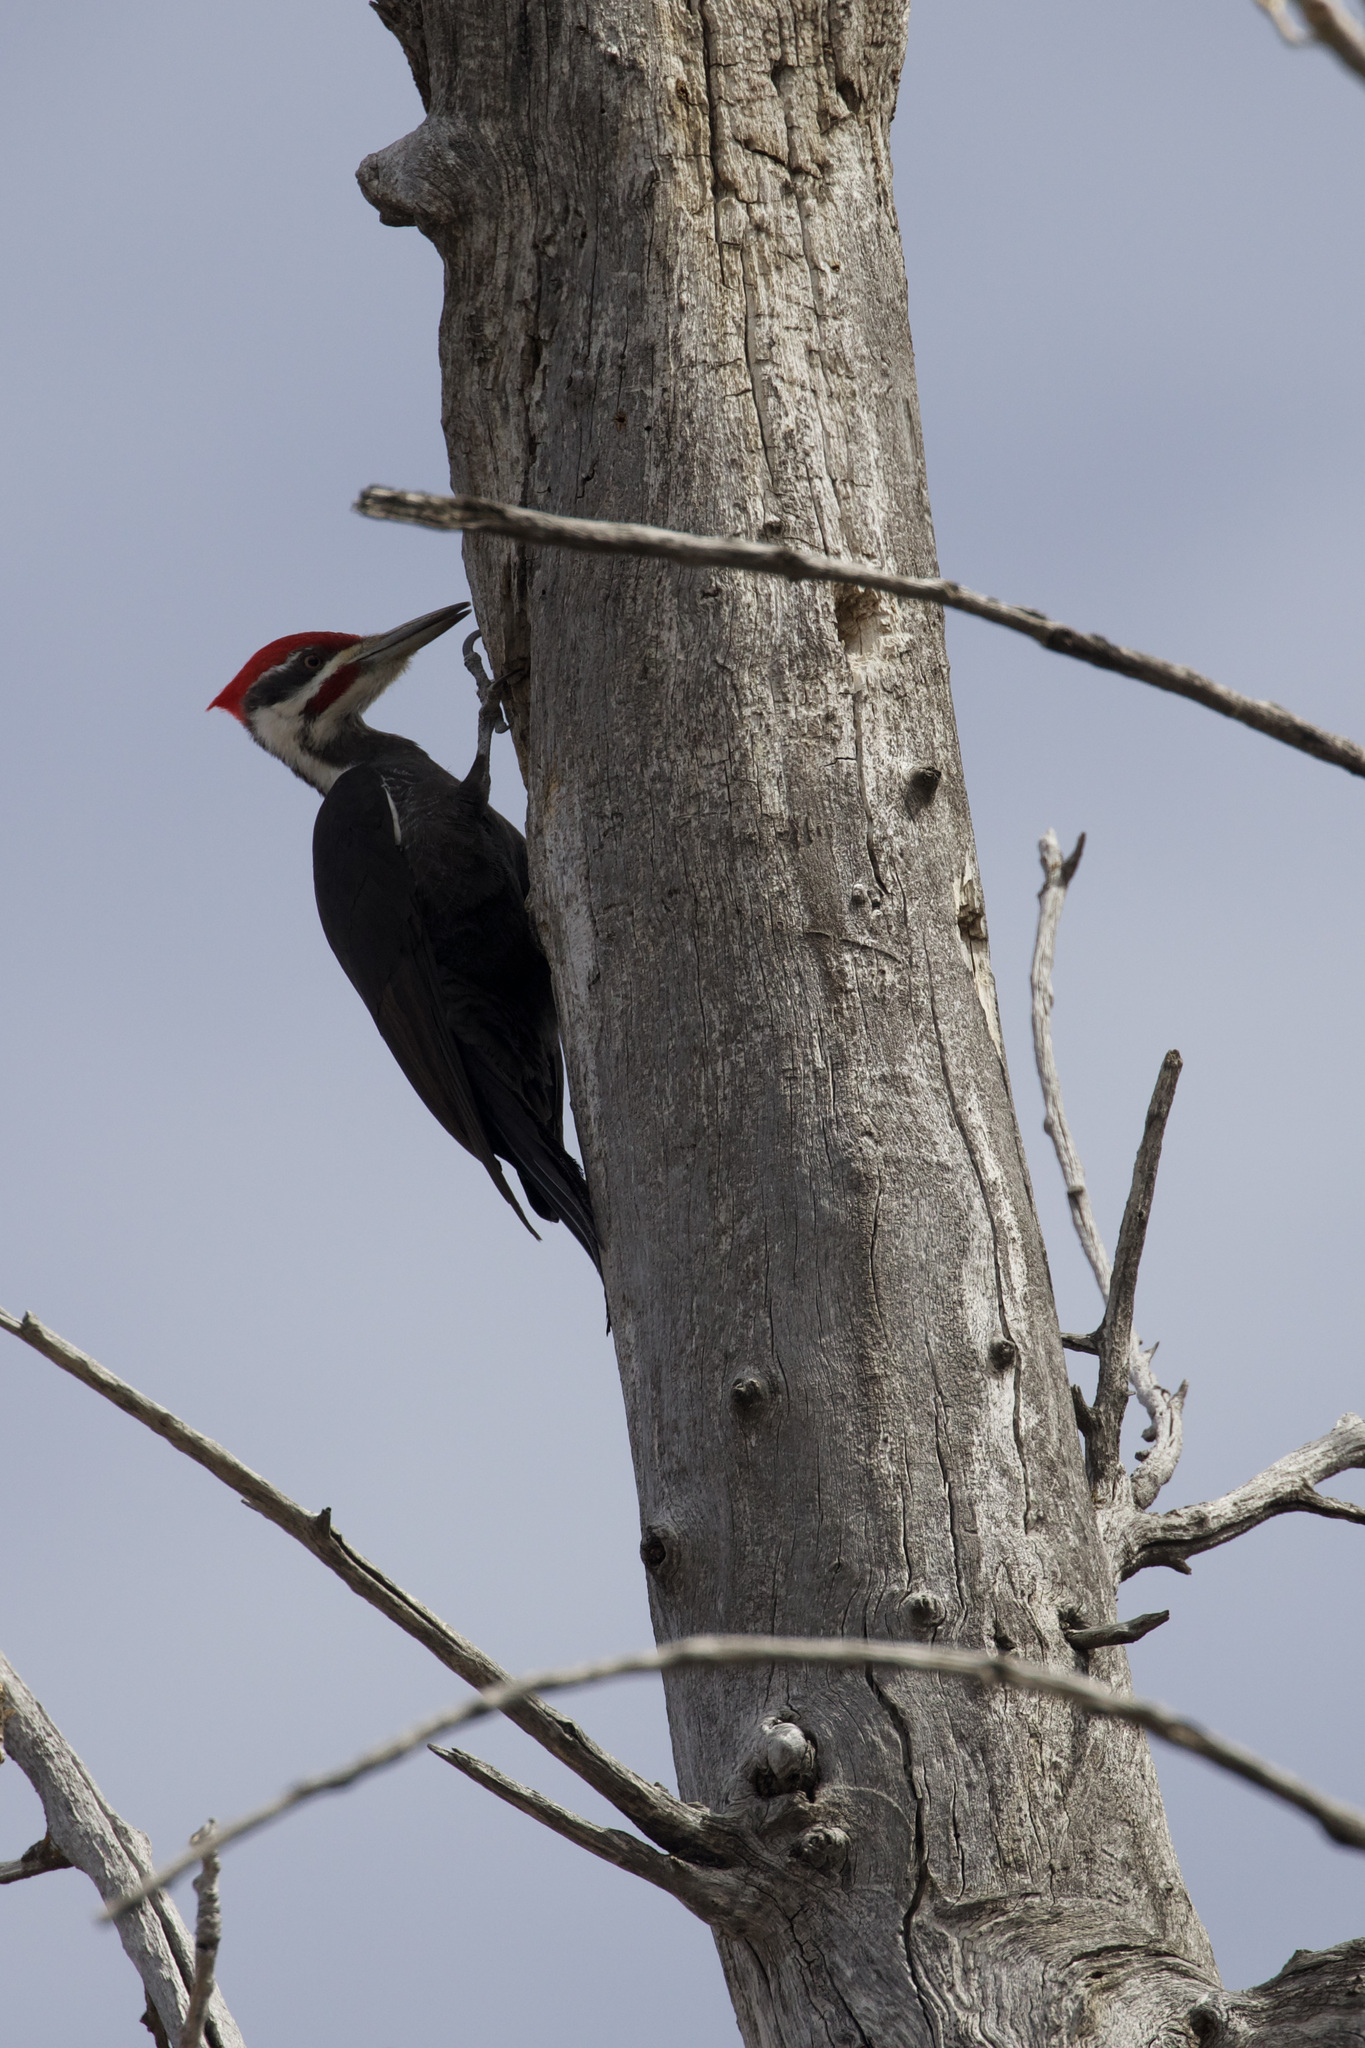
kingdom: Animalia
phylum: Chordata
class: Aves
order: Piciformes
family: Picidae
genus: Dryocopus
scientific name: Dryocopus pileatus
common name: Pileated woodpecker
